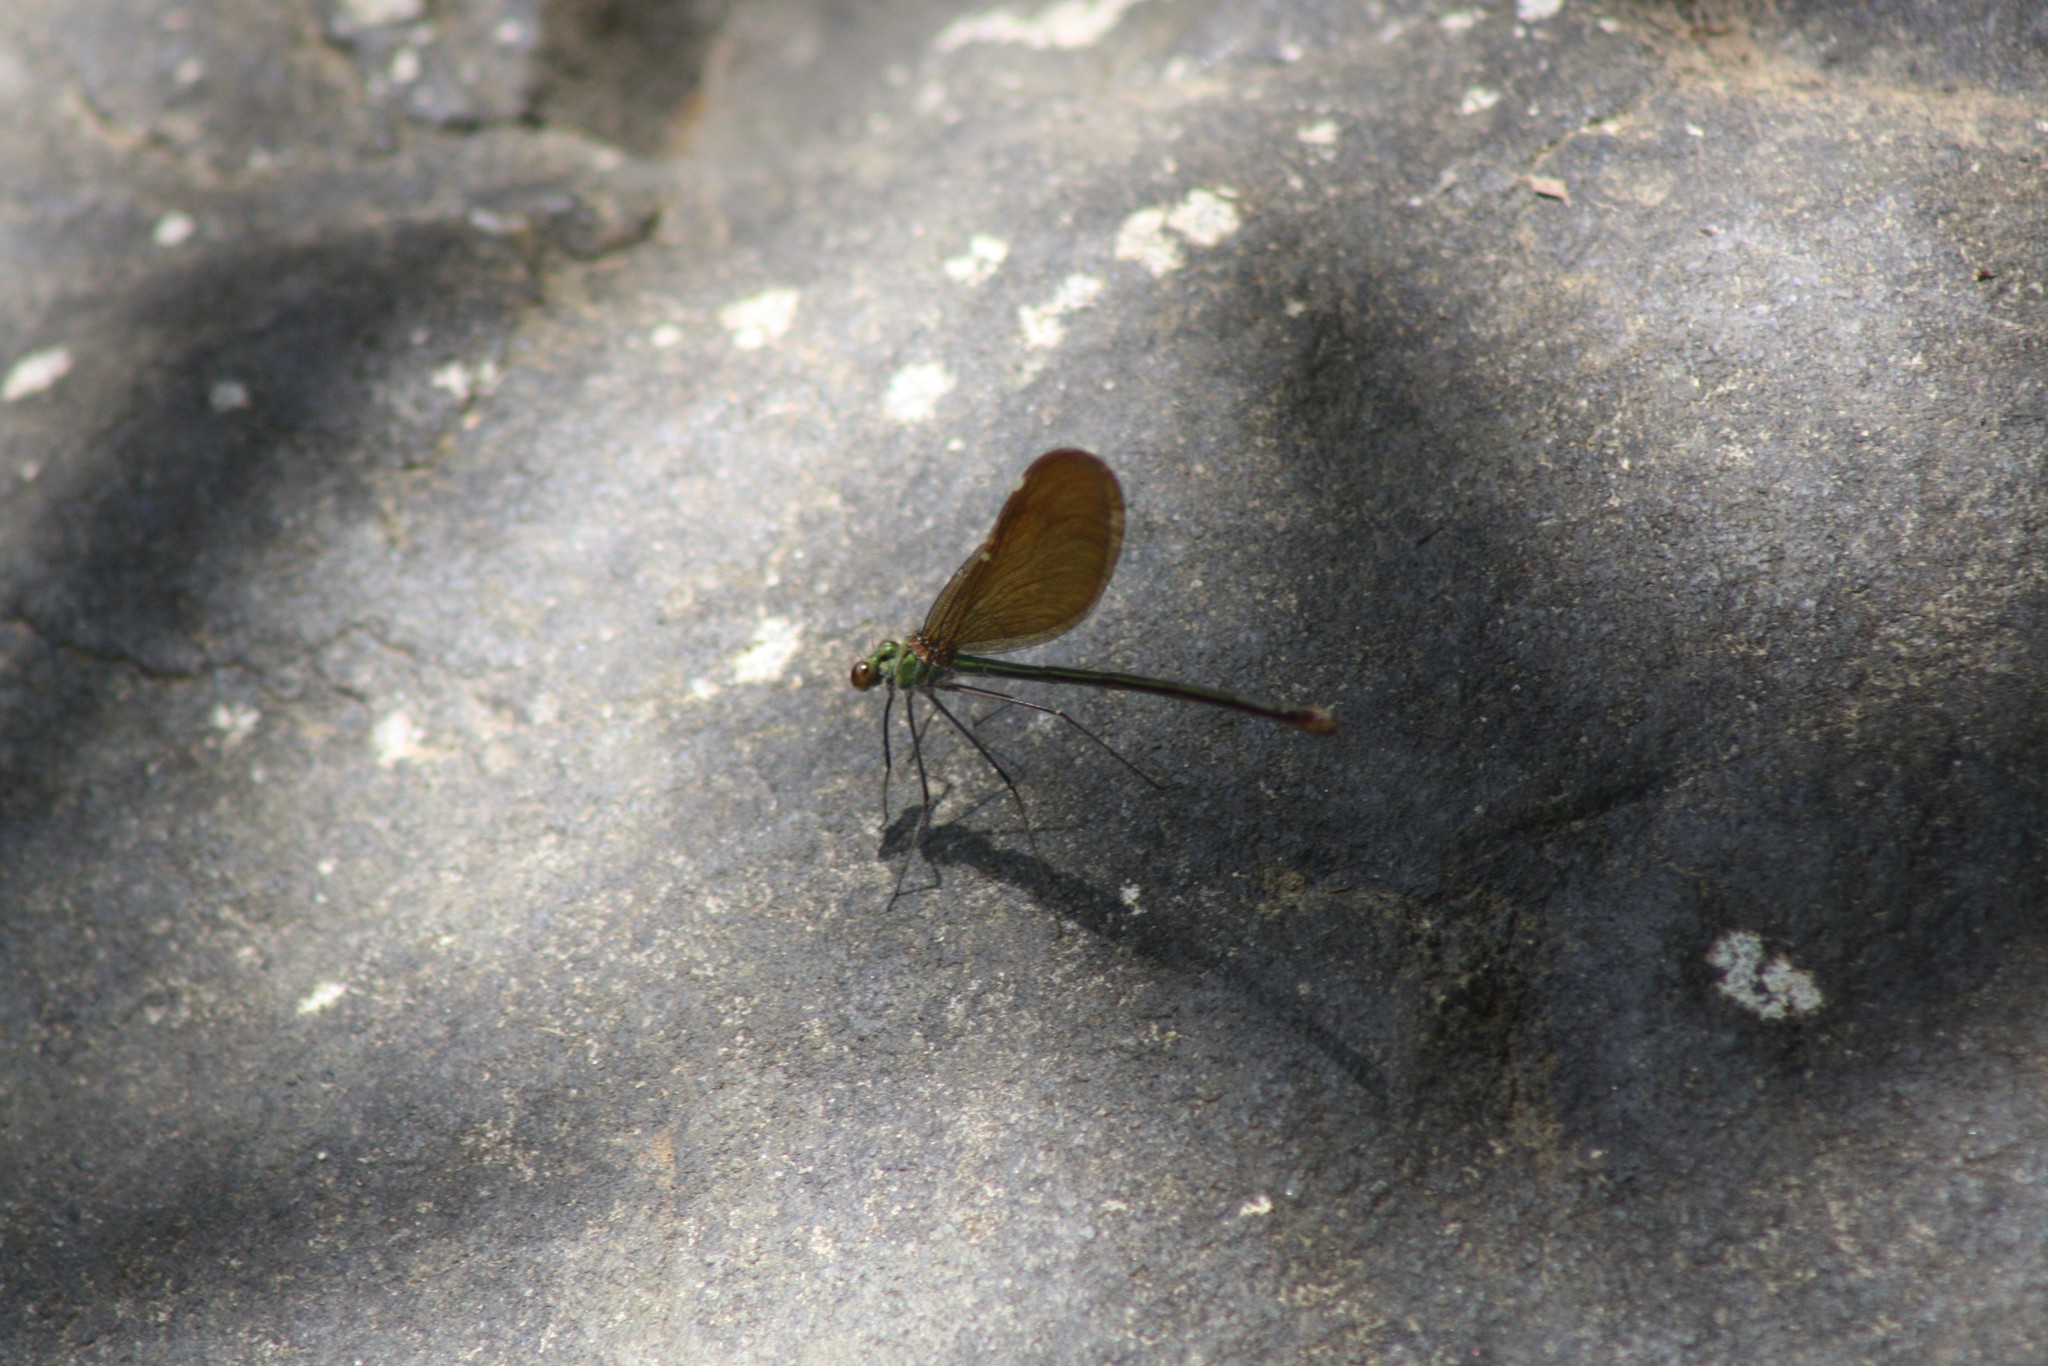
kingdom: Animalia
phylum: Arthropoda
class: Insecta
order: Odonata
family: Calopterygidae
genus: Neurobasis
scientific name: Neurobasis chinensis
